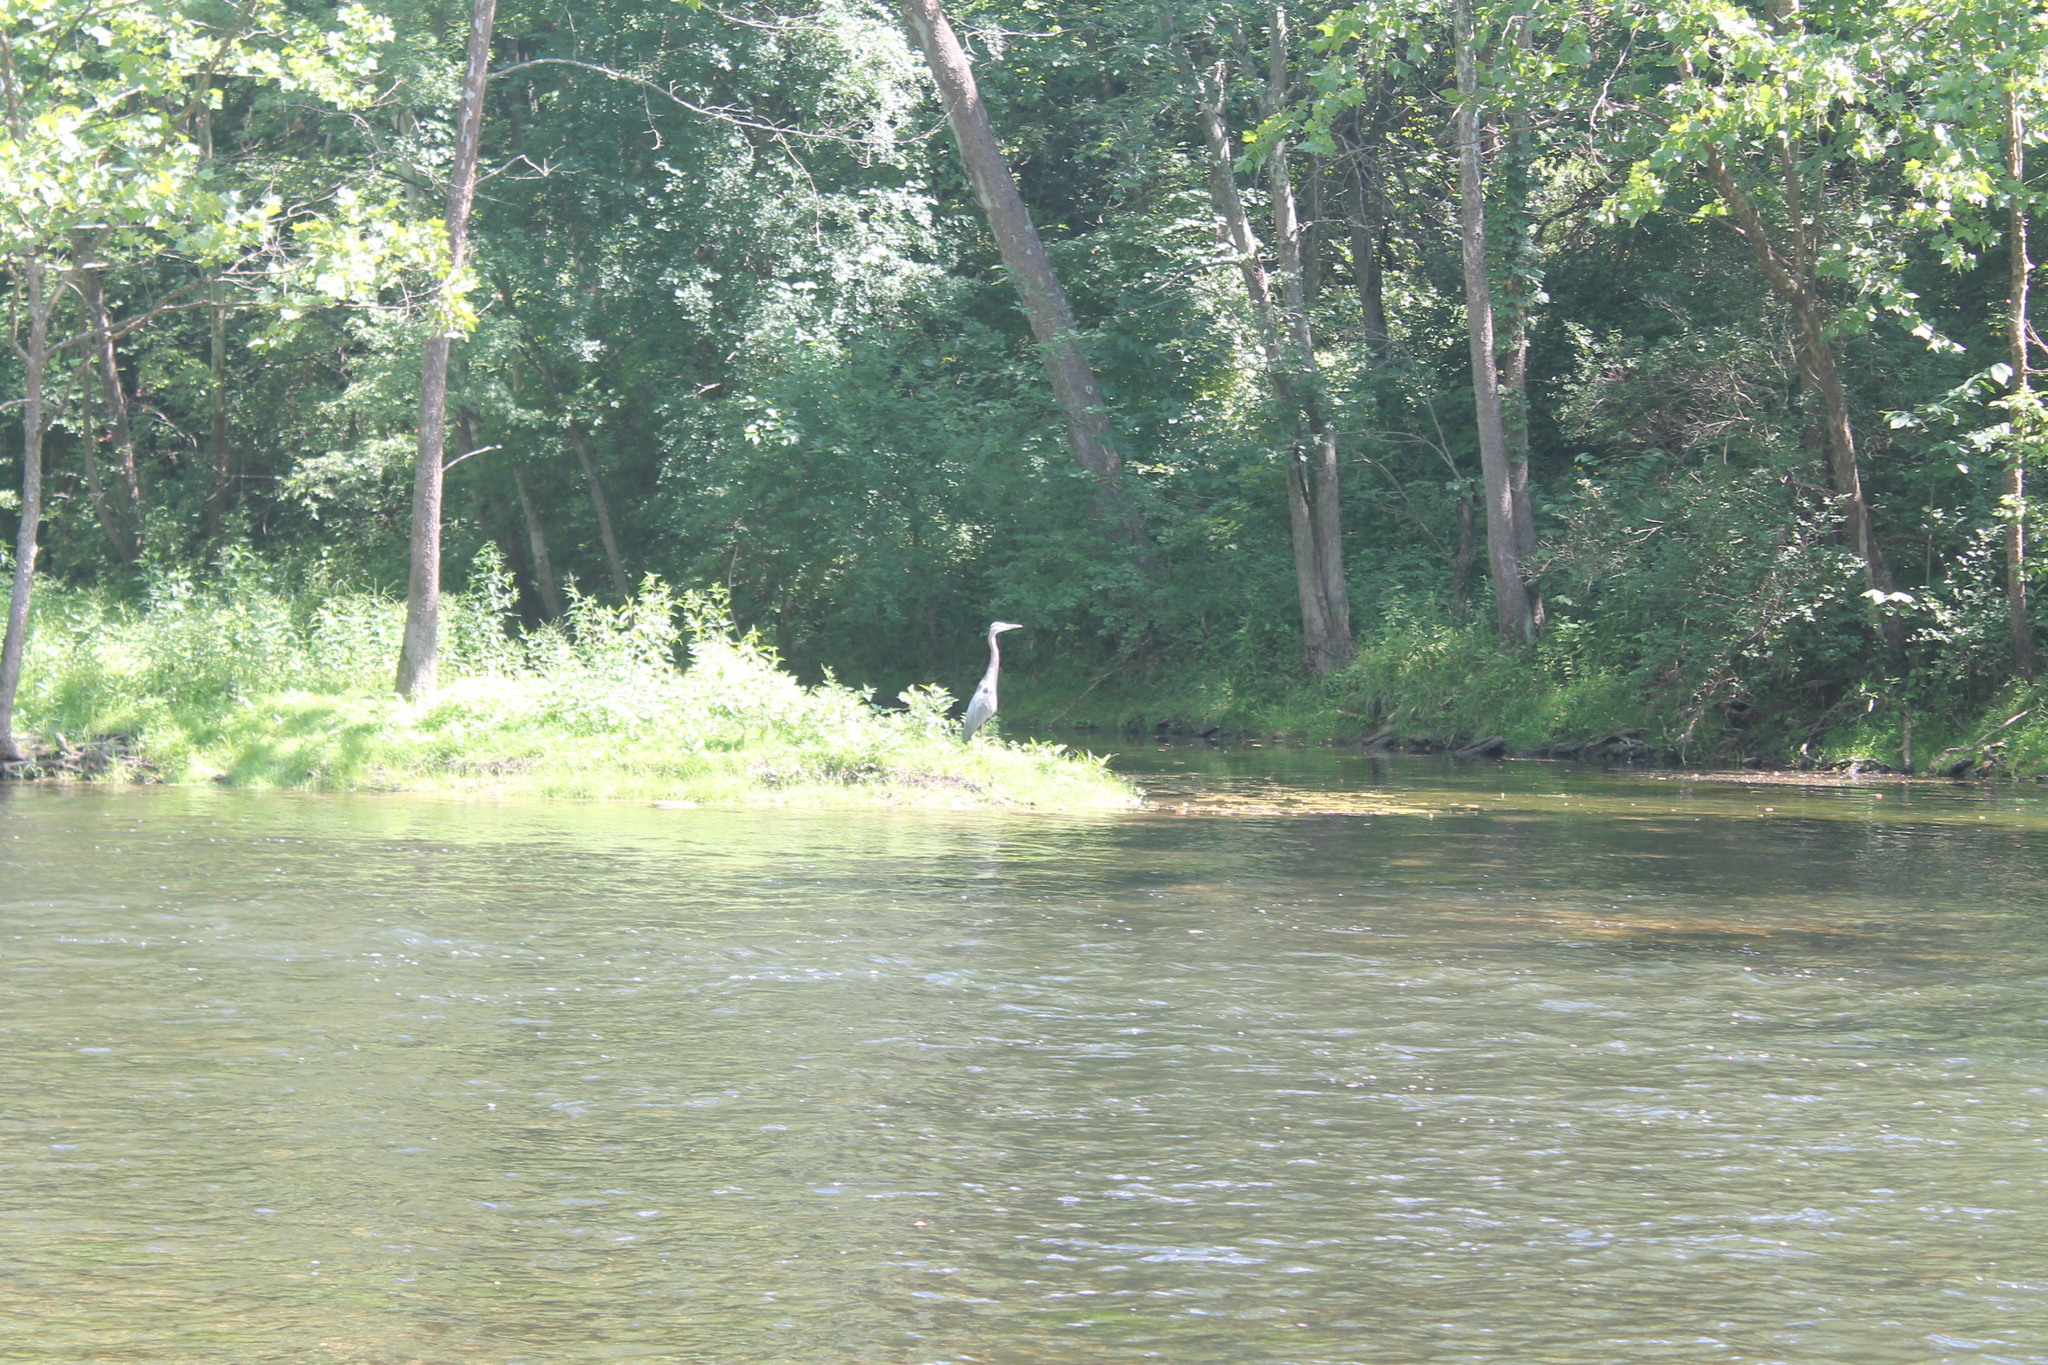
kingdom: Animalia
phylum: Chordata
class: Aves
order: Pelecaniformes
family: Ardeidae
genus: Ardea
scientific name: Ardea herodias
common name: Great blue heron
